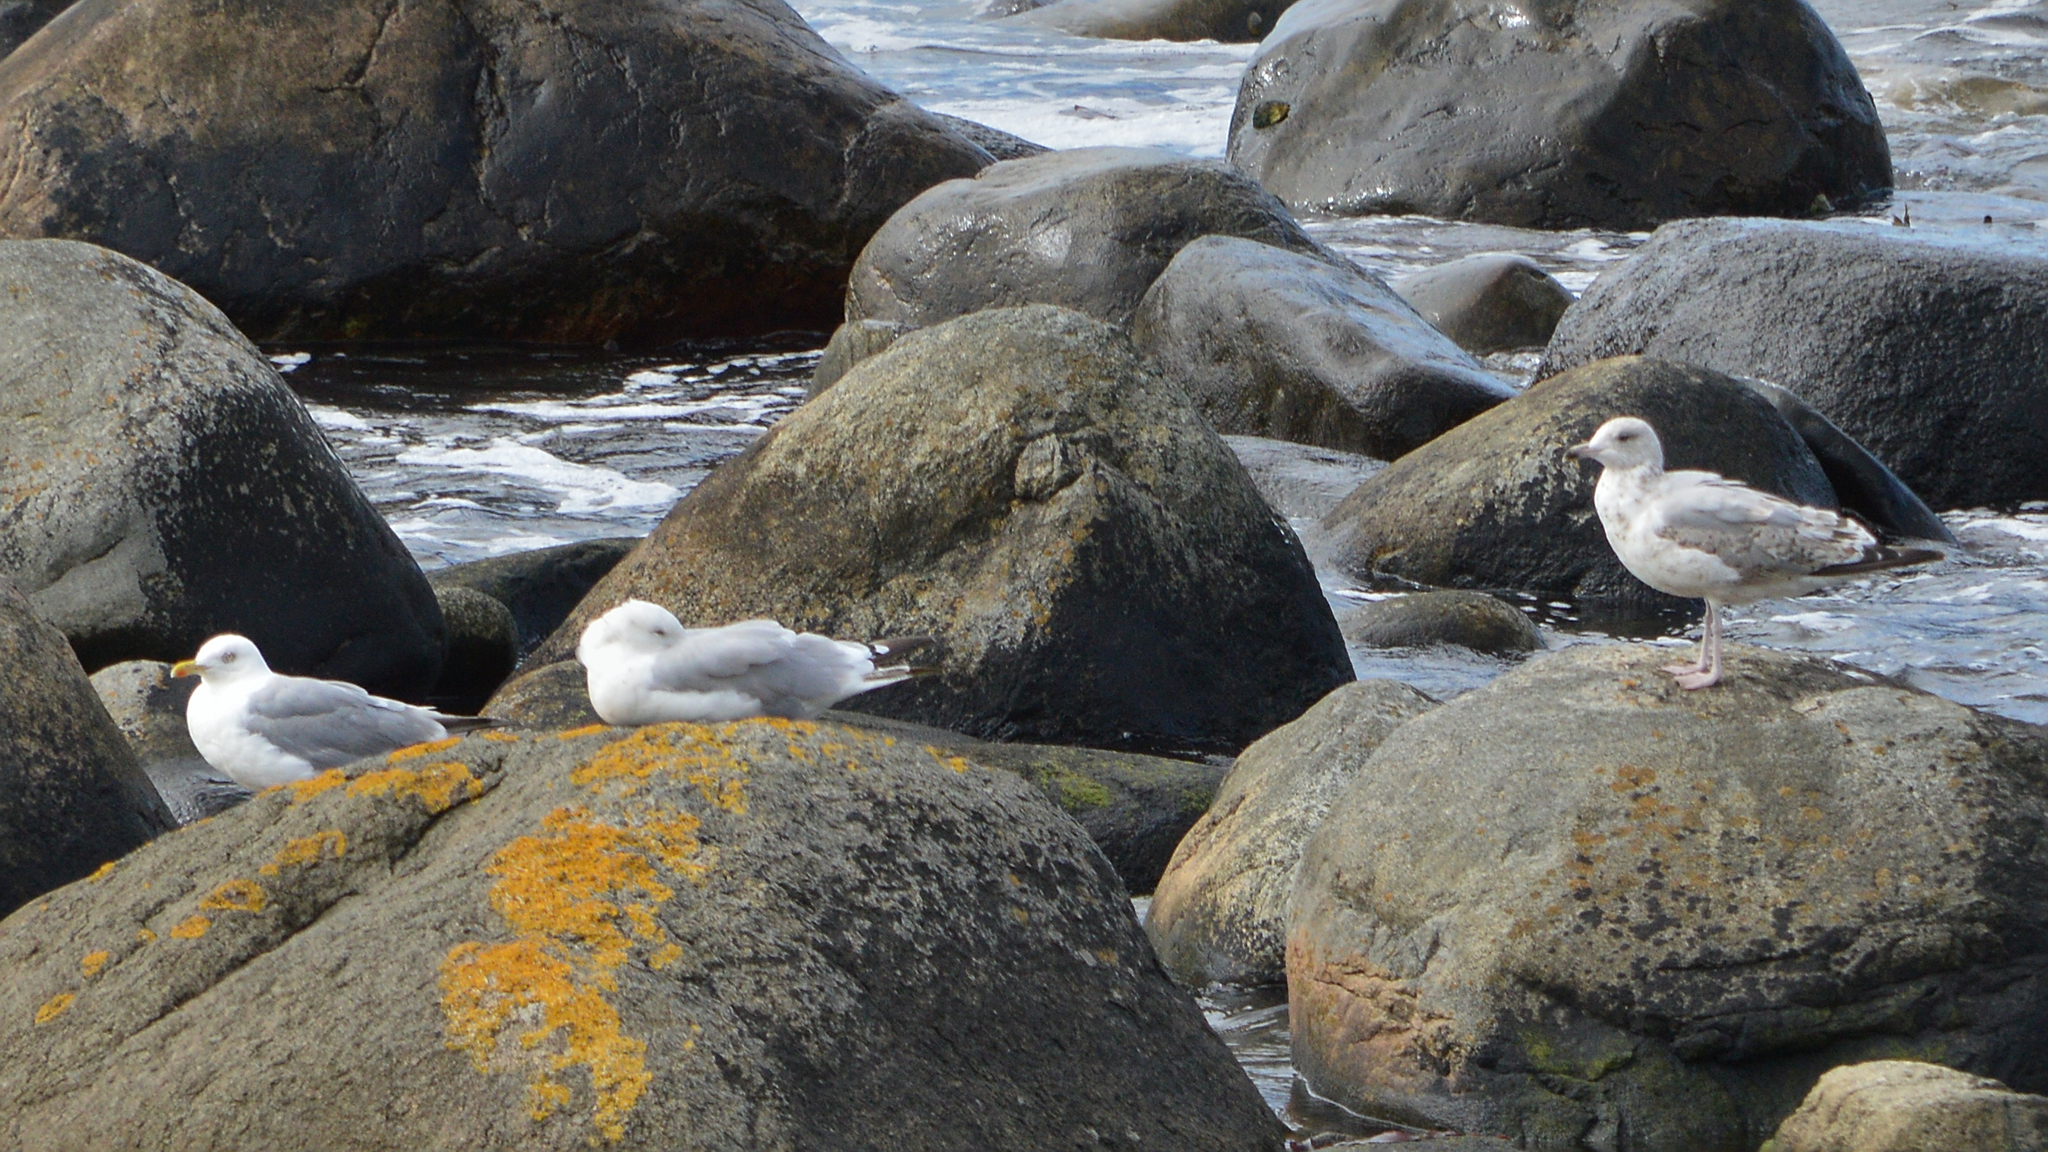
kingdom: Animalia
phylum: Chordata
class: Aves
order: Charadriiformes
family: Laridae
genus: Larus
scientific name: Larus argentatus
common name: Herring gull
